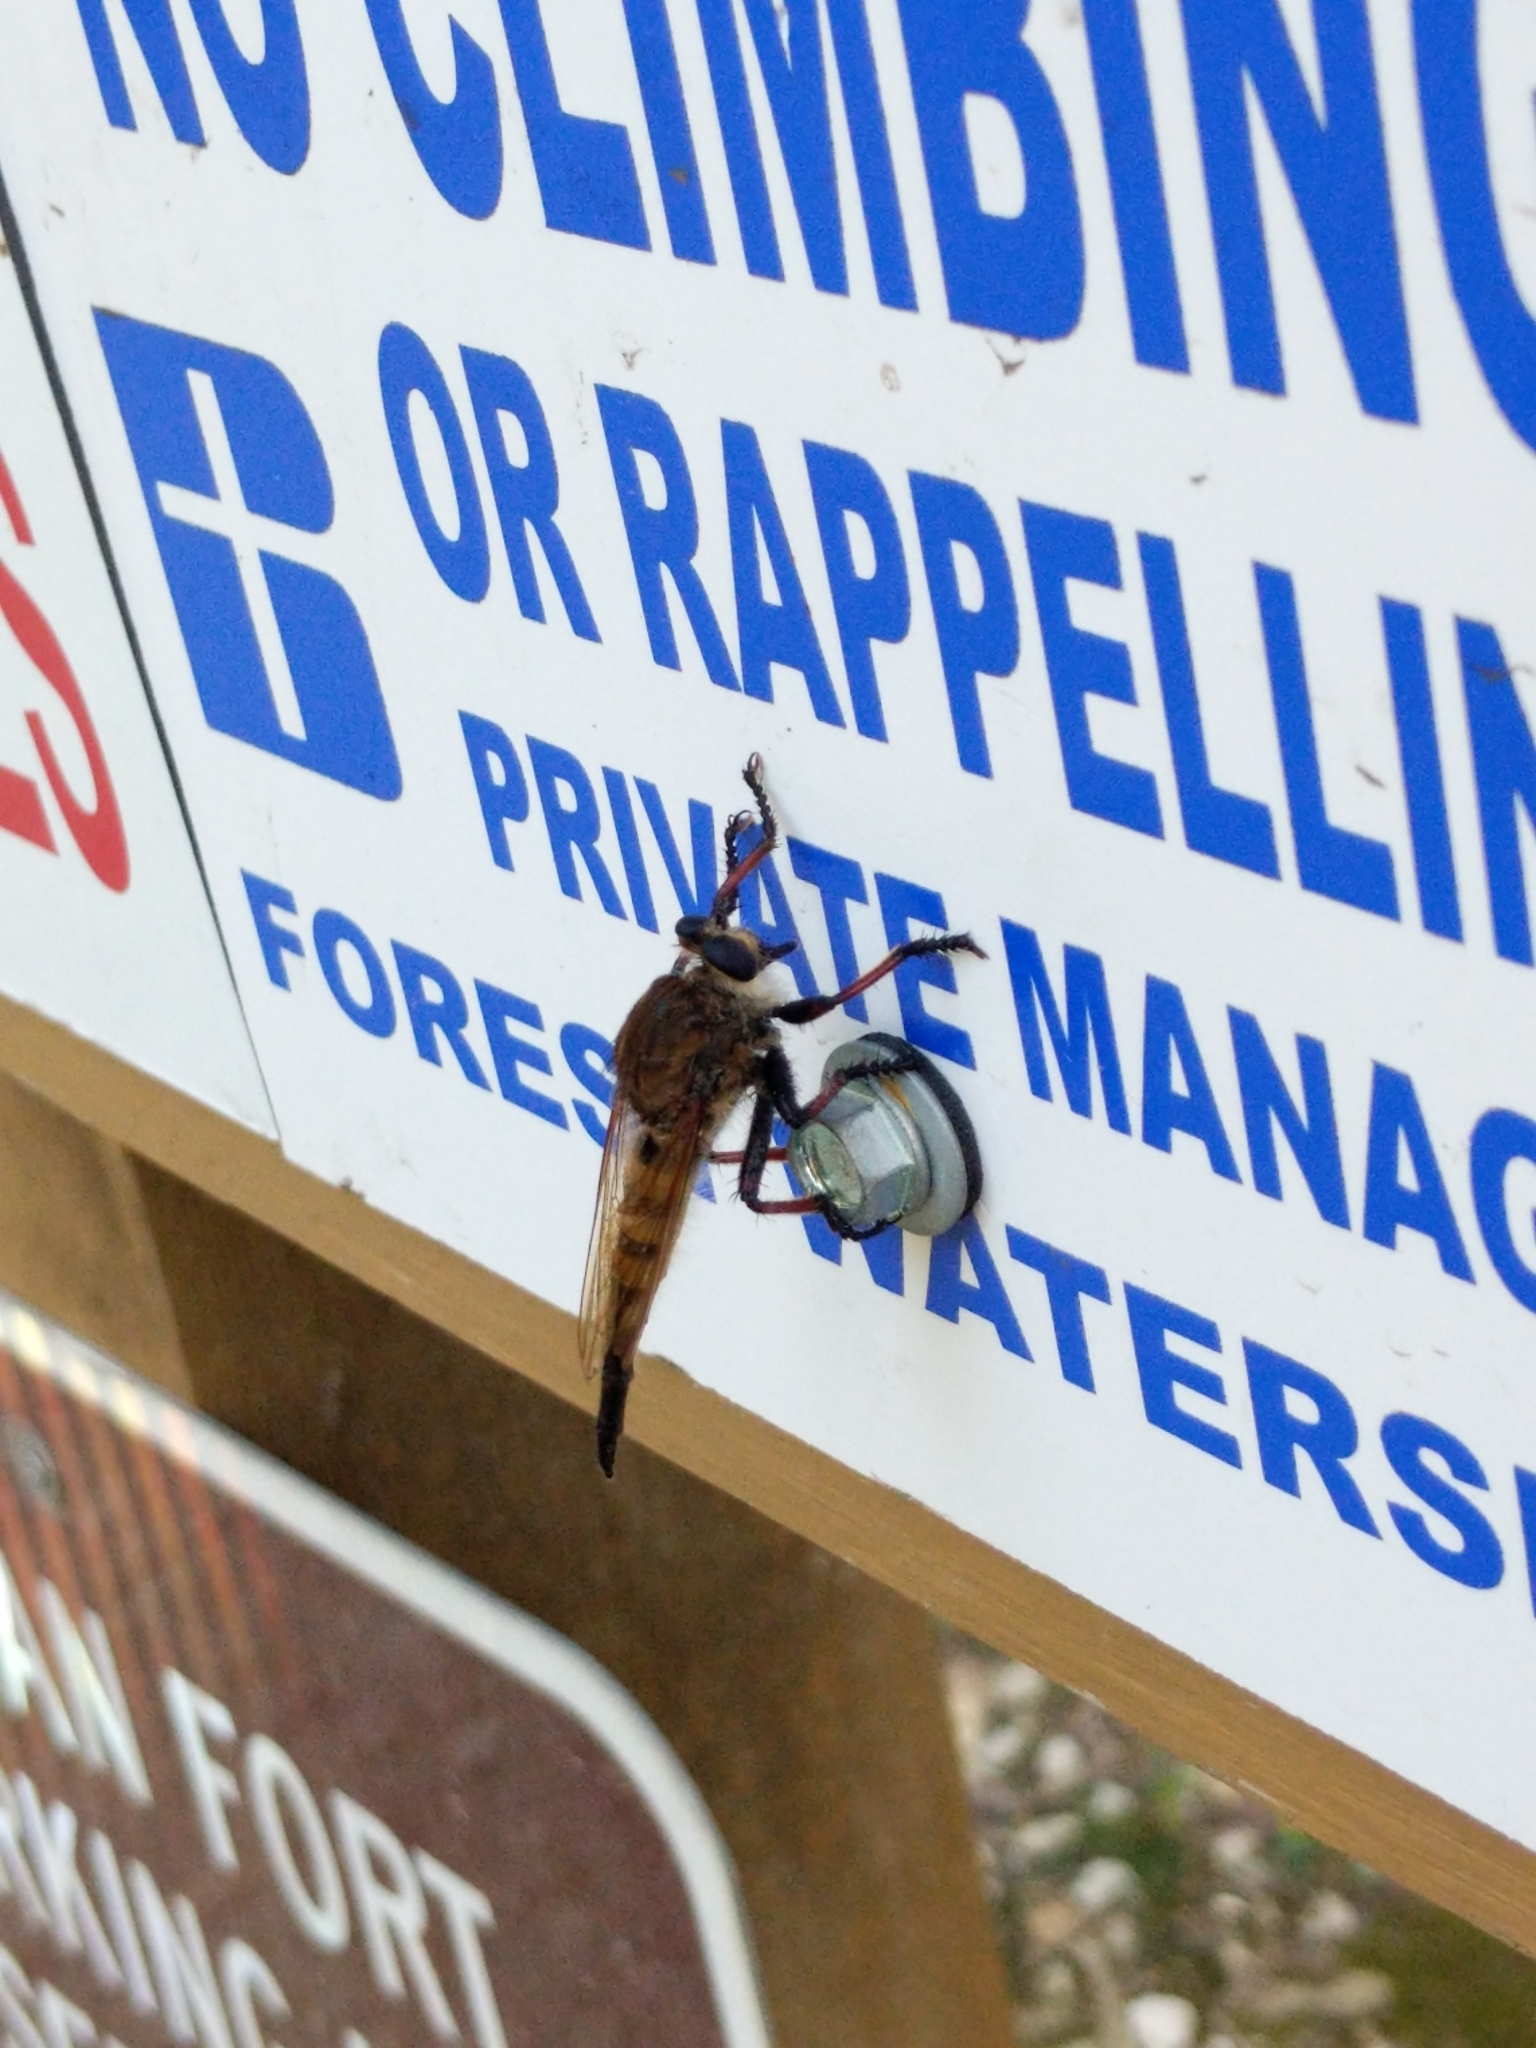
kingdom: Animalia
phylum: Arthropoda
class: Insecta
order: Diptera
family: Asilidae
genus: Promachus
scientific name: Promachus hinei
